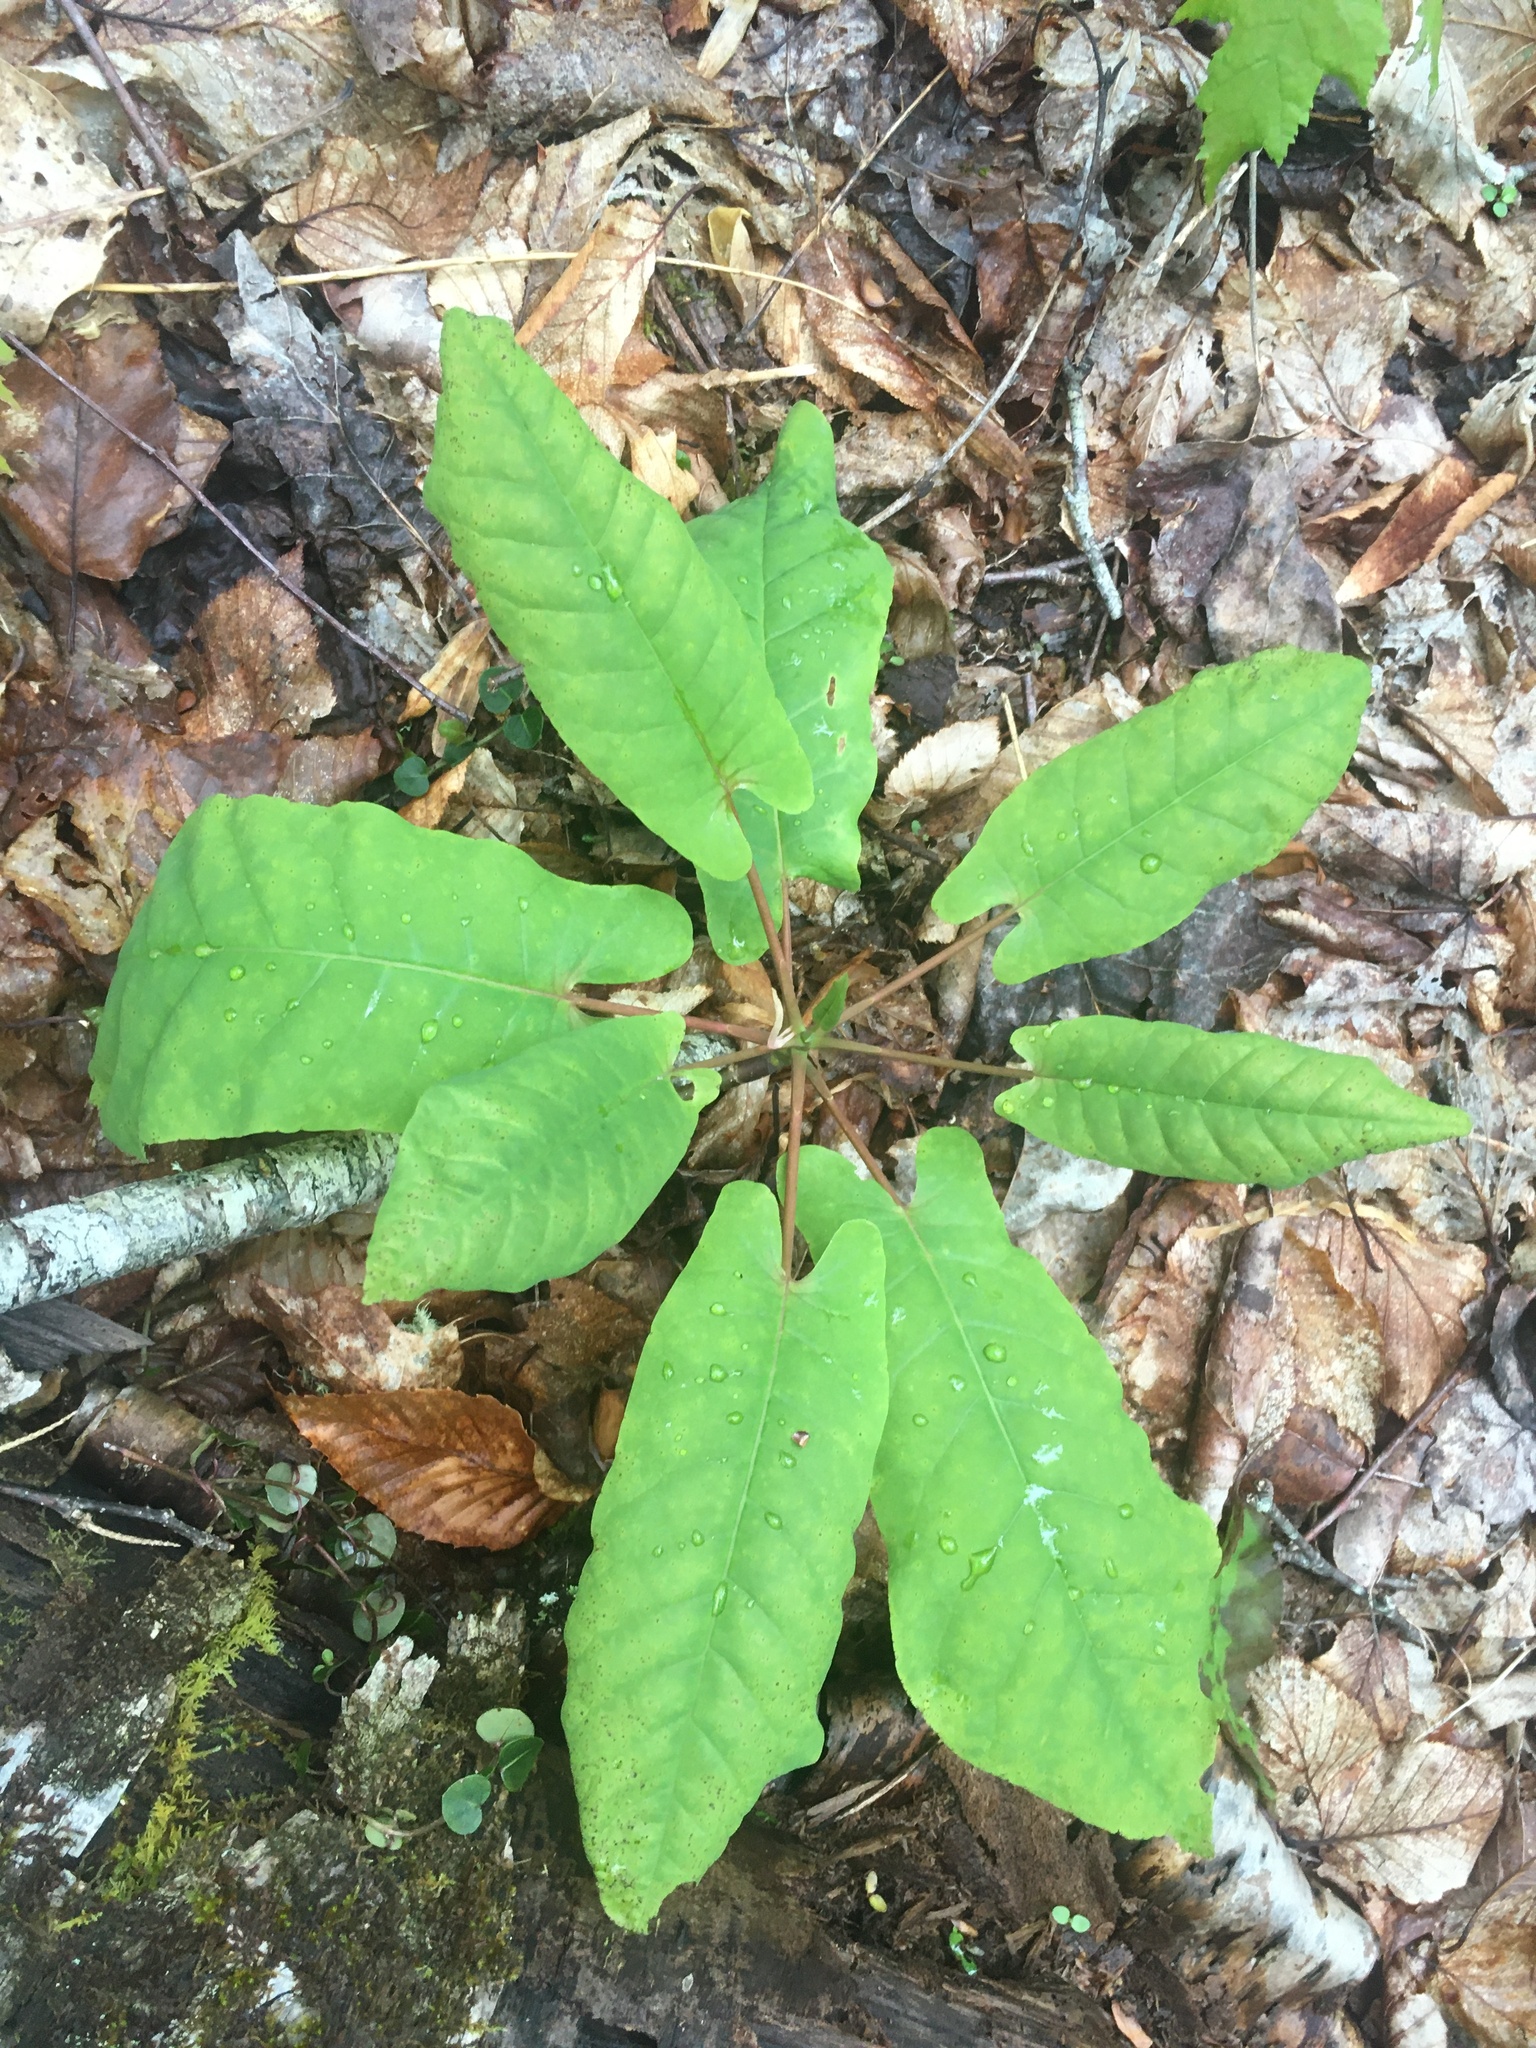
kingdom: Plantae
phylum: Tracheophyta
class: Magnoliopsida
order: Magnoliales
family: Magnoliaceae
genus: Magnolia
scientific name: Magnolia fraseri
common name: Fraser's magnolia
